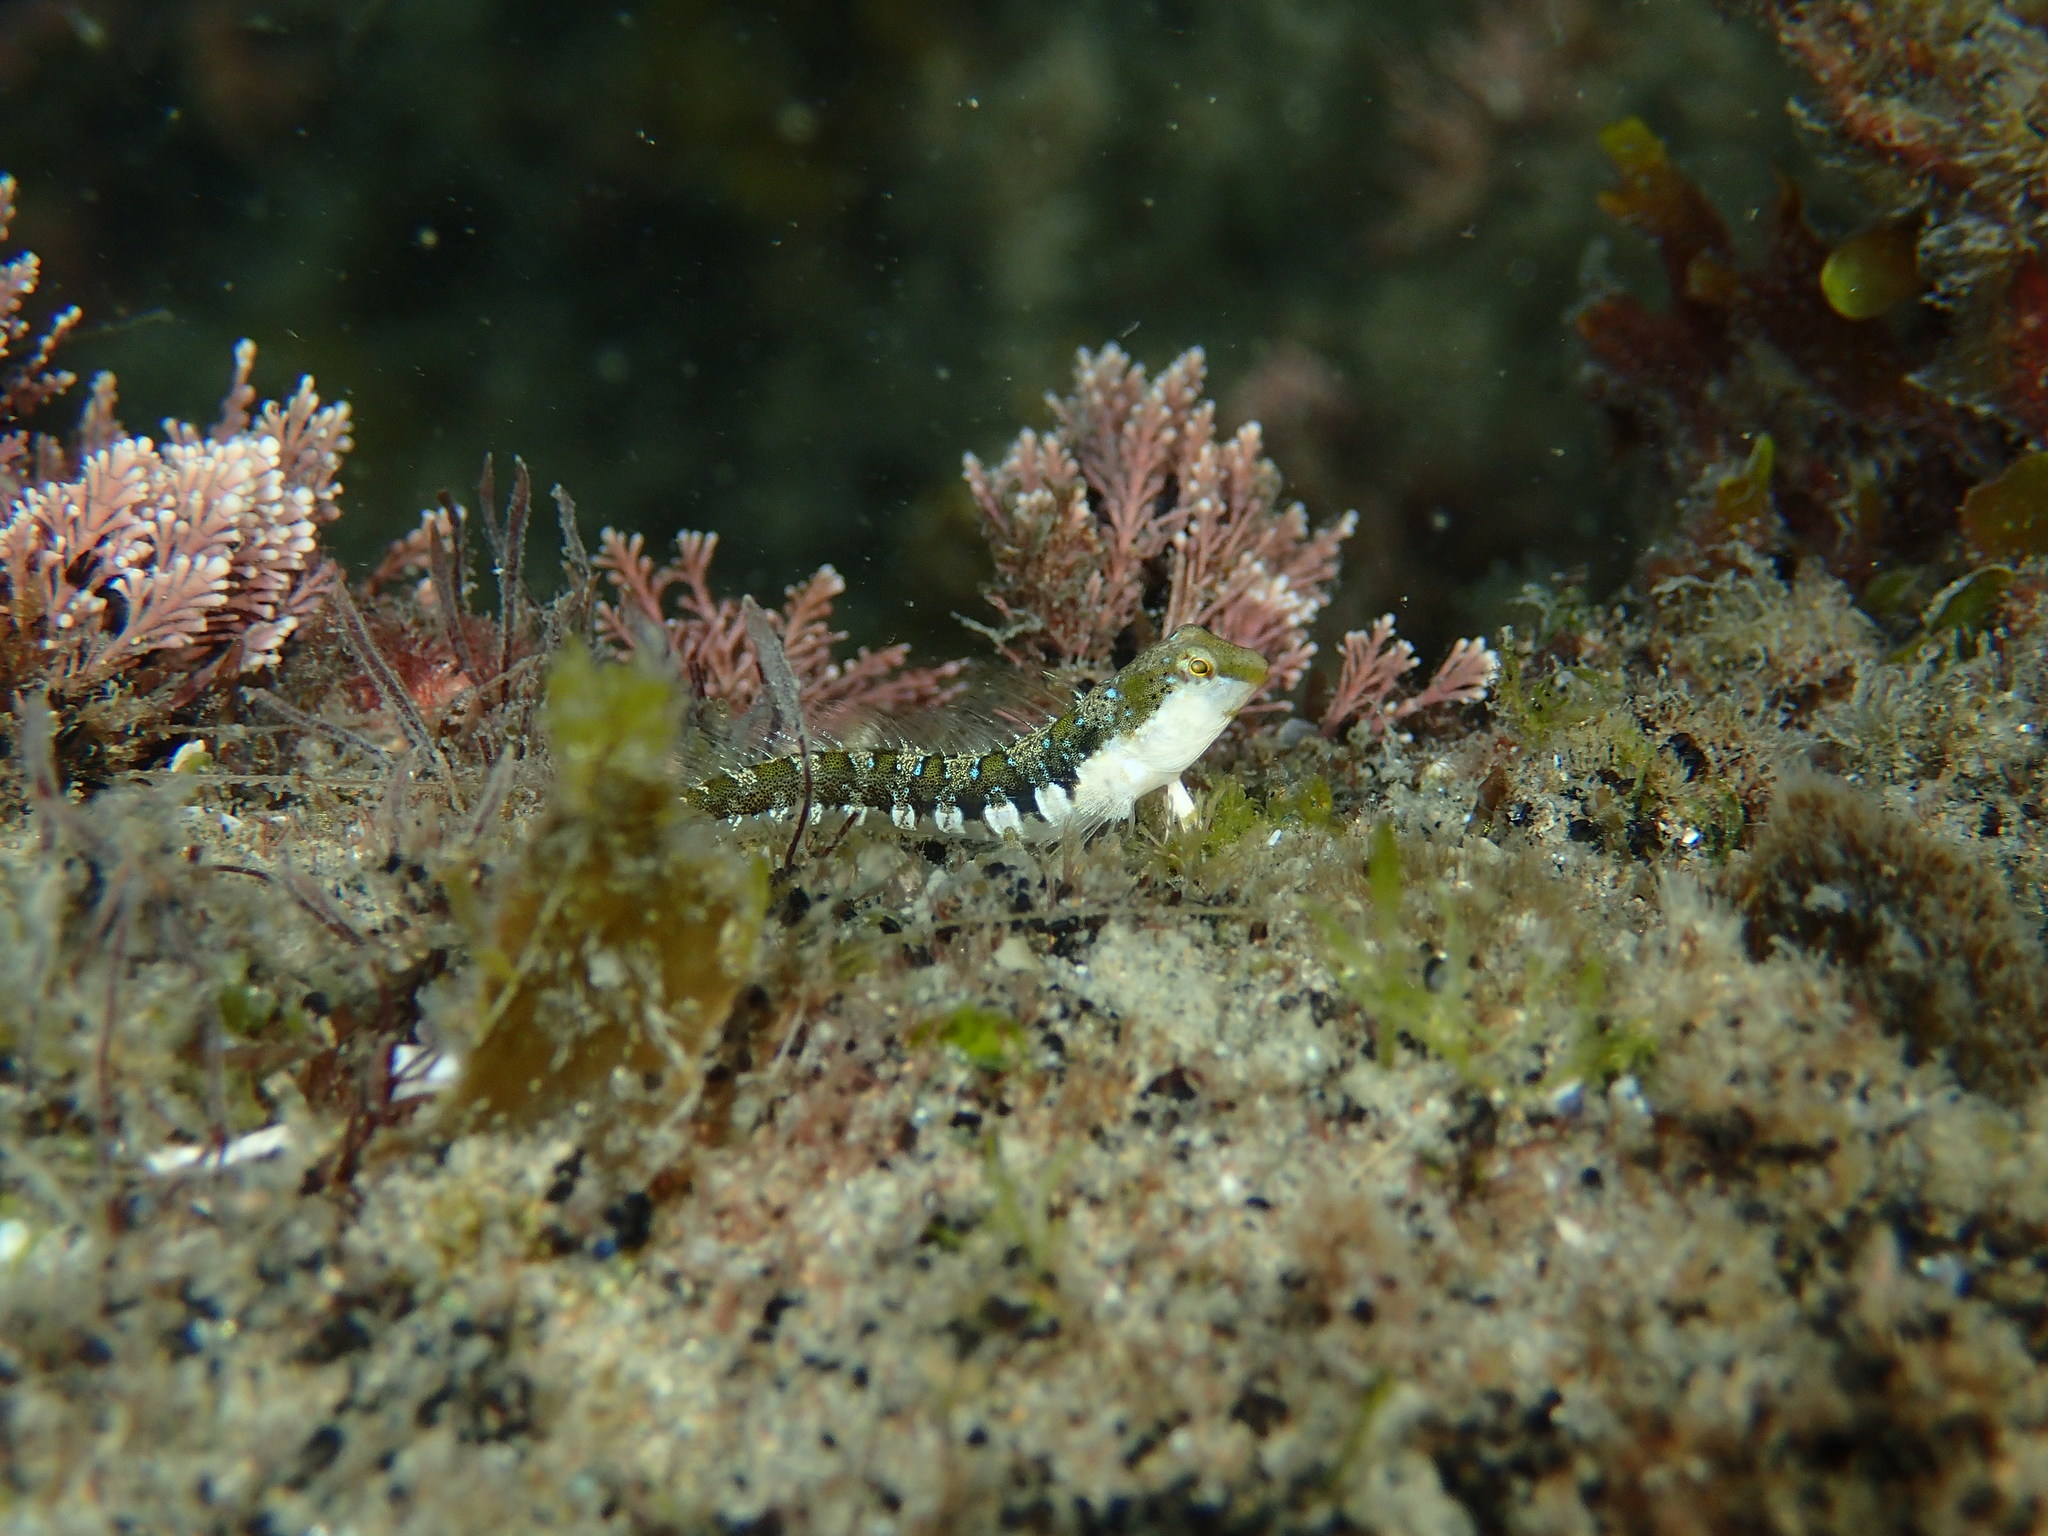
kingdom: Animalia
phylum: Chordata
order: Perciformes
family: Blenniidae
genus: Microlipophrys
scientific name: Microlipophrys dalmatinus
